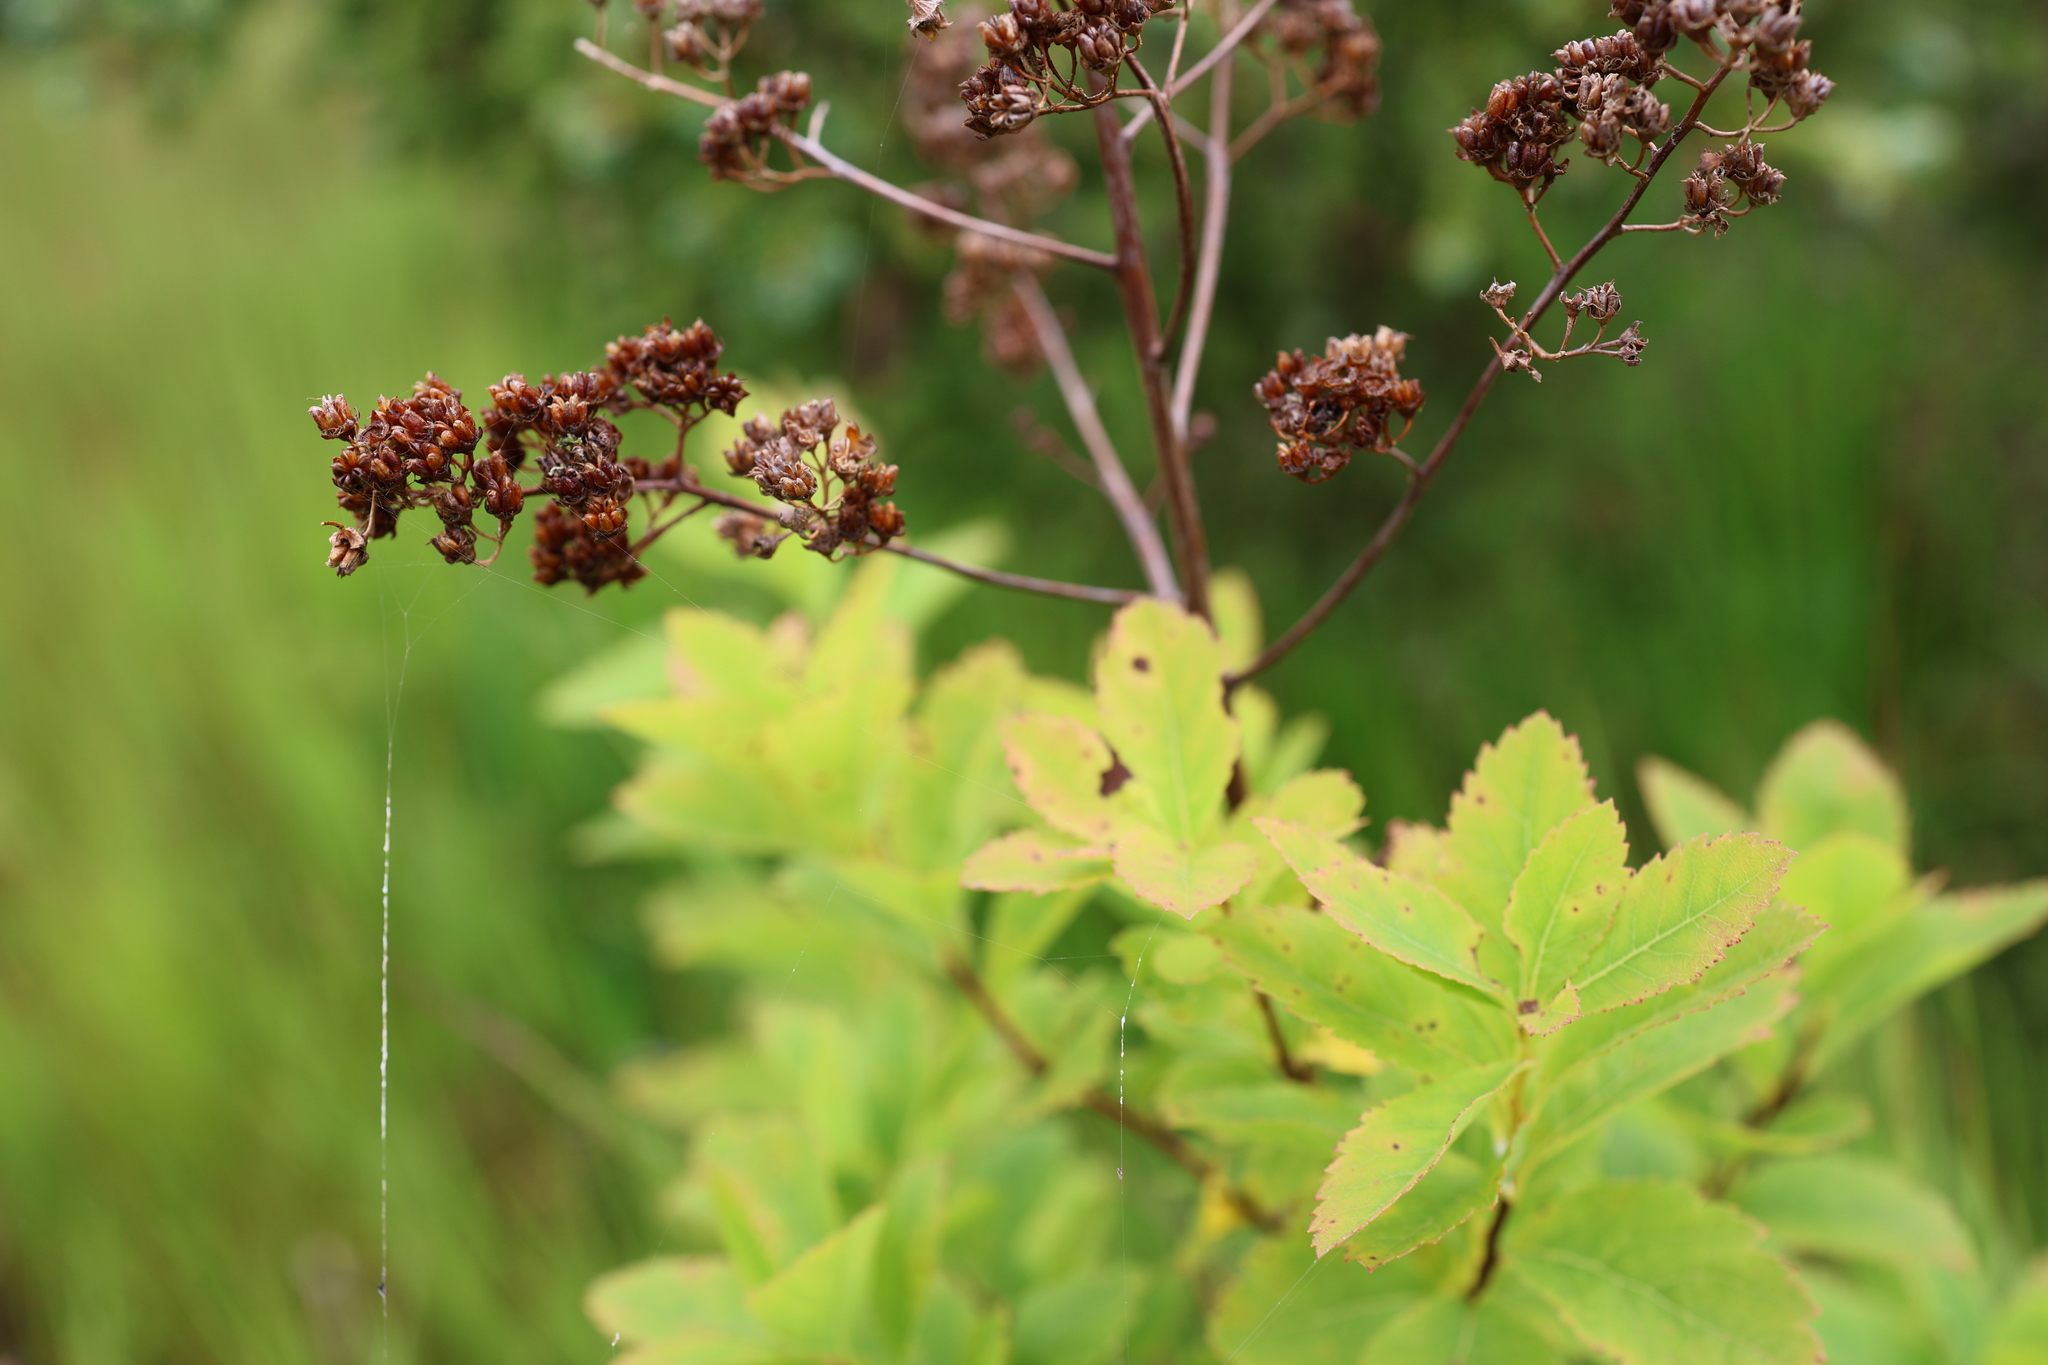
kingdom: Plantae
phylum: Tracheophyta
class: Magnoliopsida
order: Rosales
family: Rosaceae
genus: Spiraea
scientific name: Spiraea alba
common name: Pale bridewort
